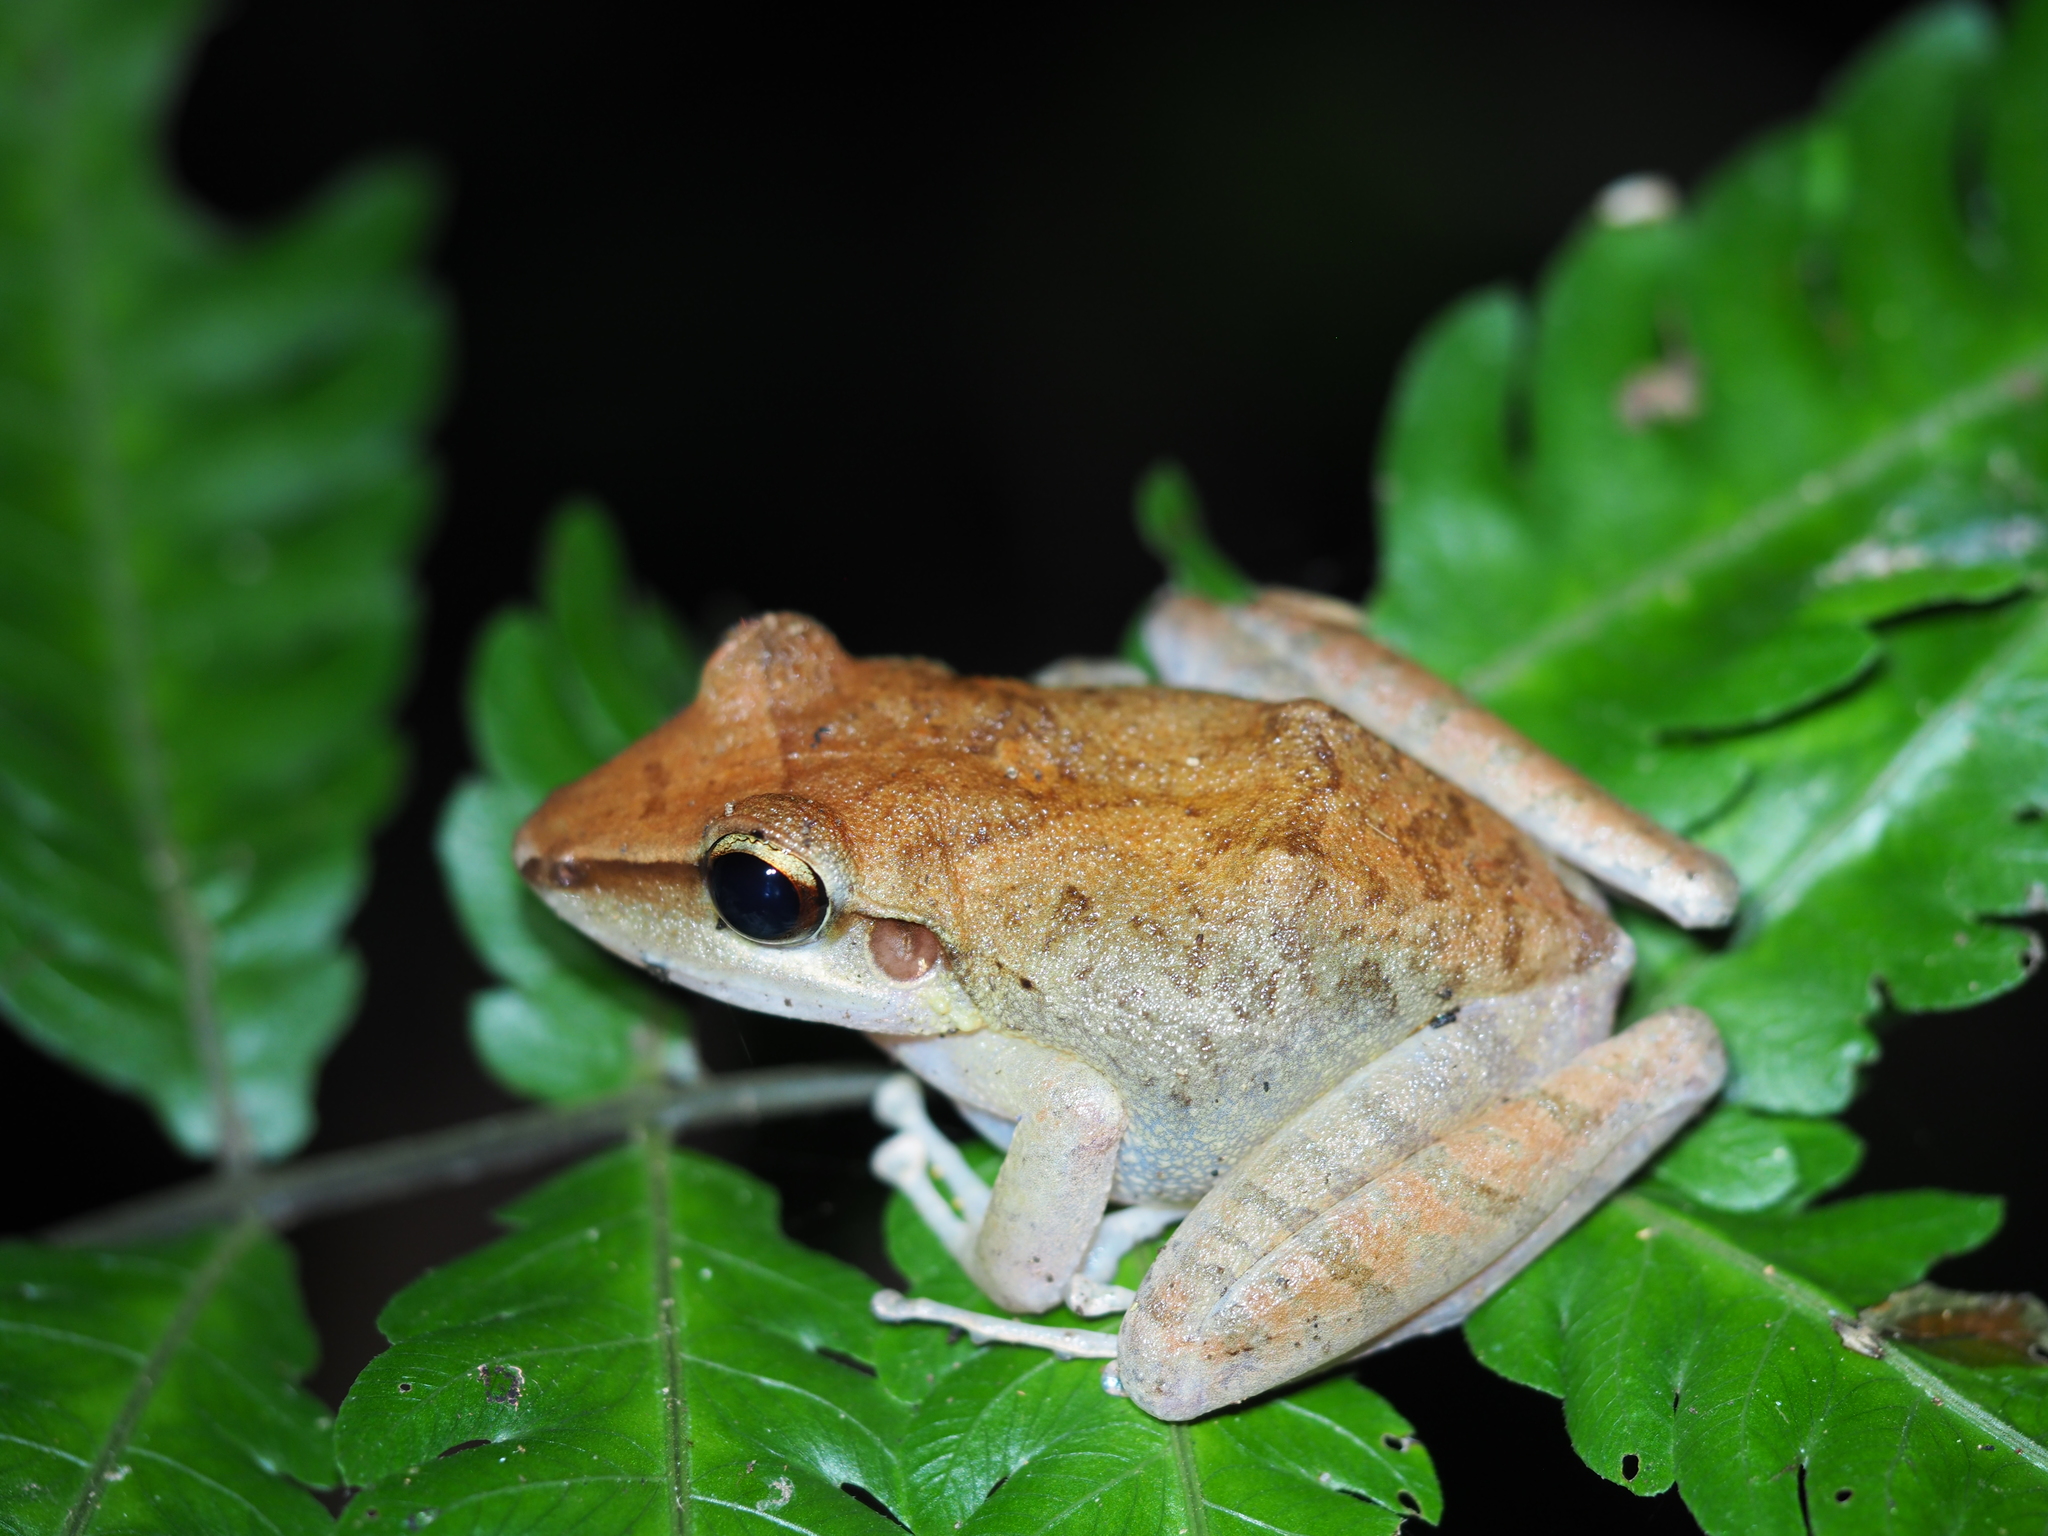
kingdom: Animalia
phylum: Chordata
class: Amphibia
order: Anura
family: Craugastoridae
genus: Craugastor
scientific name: Craugastor talamancae
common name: Almirante robber frog
